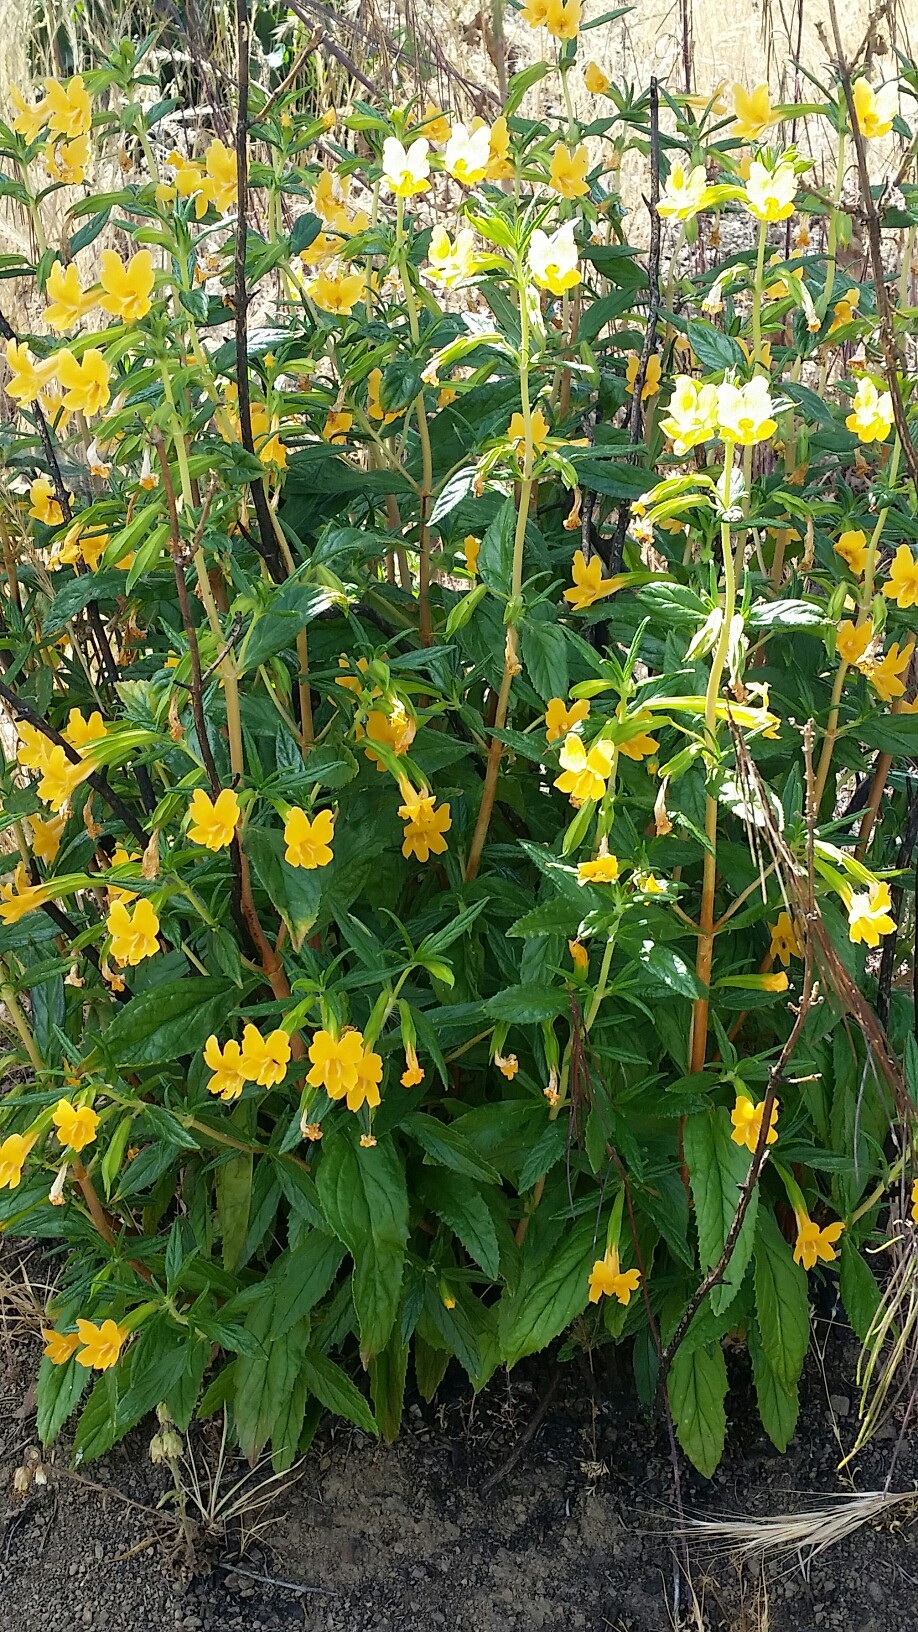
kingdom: Plantae
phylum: Tracheophyta
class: Magnoliopsida
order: Lamiales
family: Phrymaceae
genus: Diplacus
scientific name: Diplacus aurantiacus
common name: Bush monkey-flower
